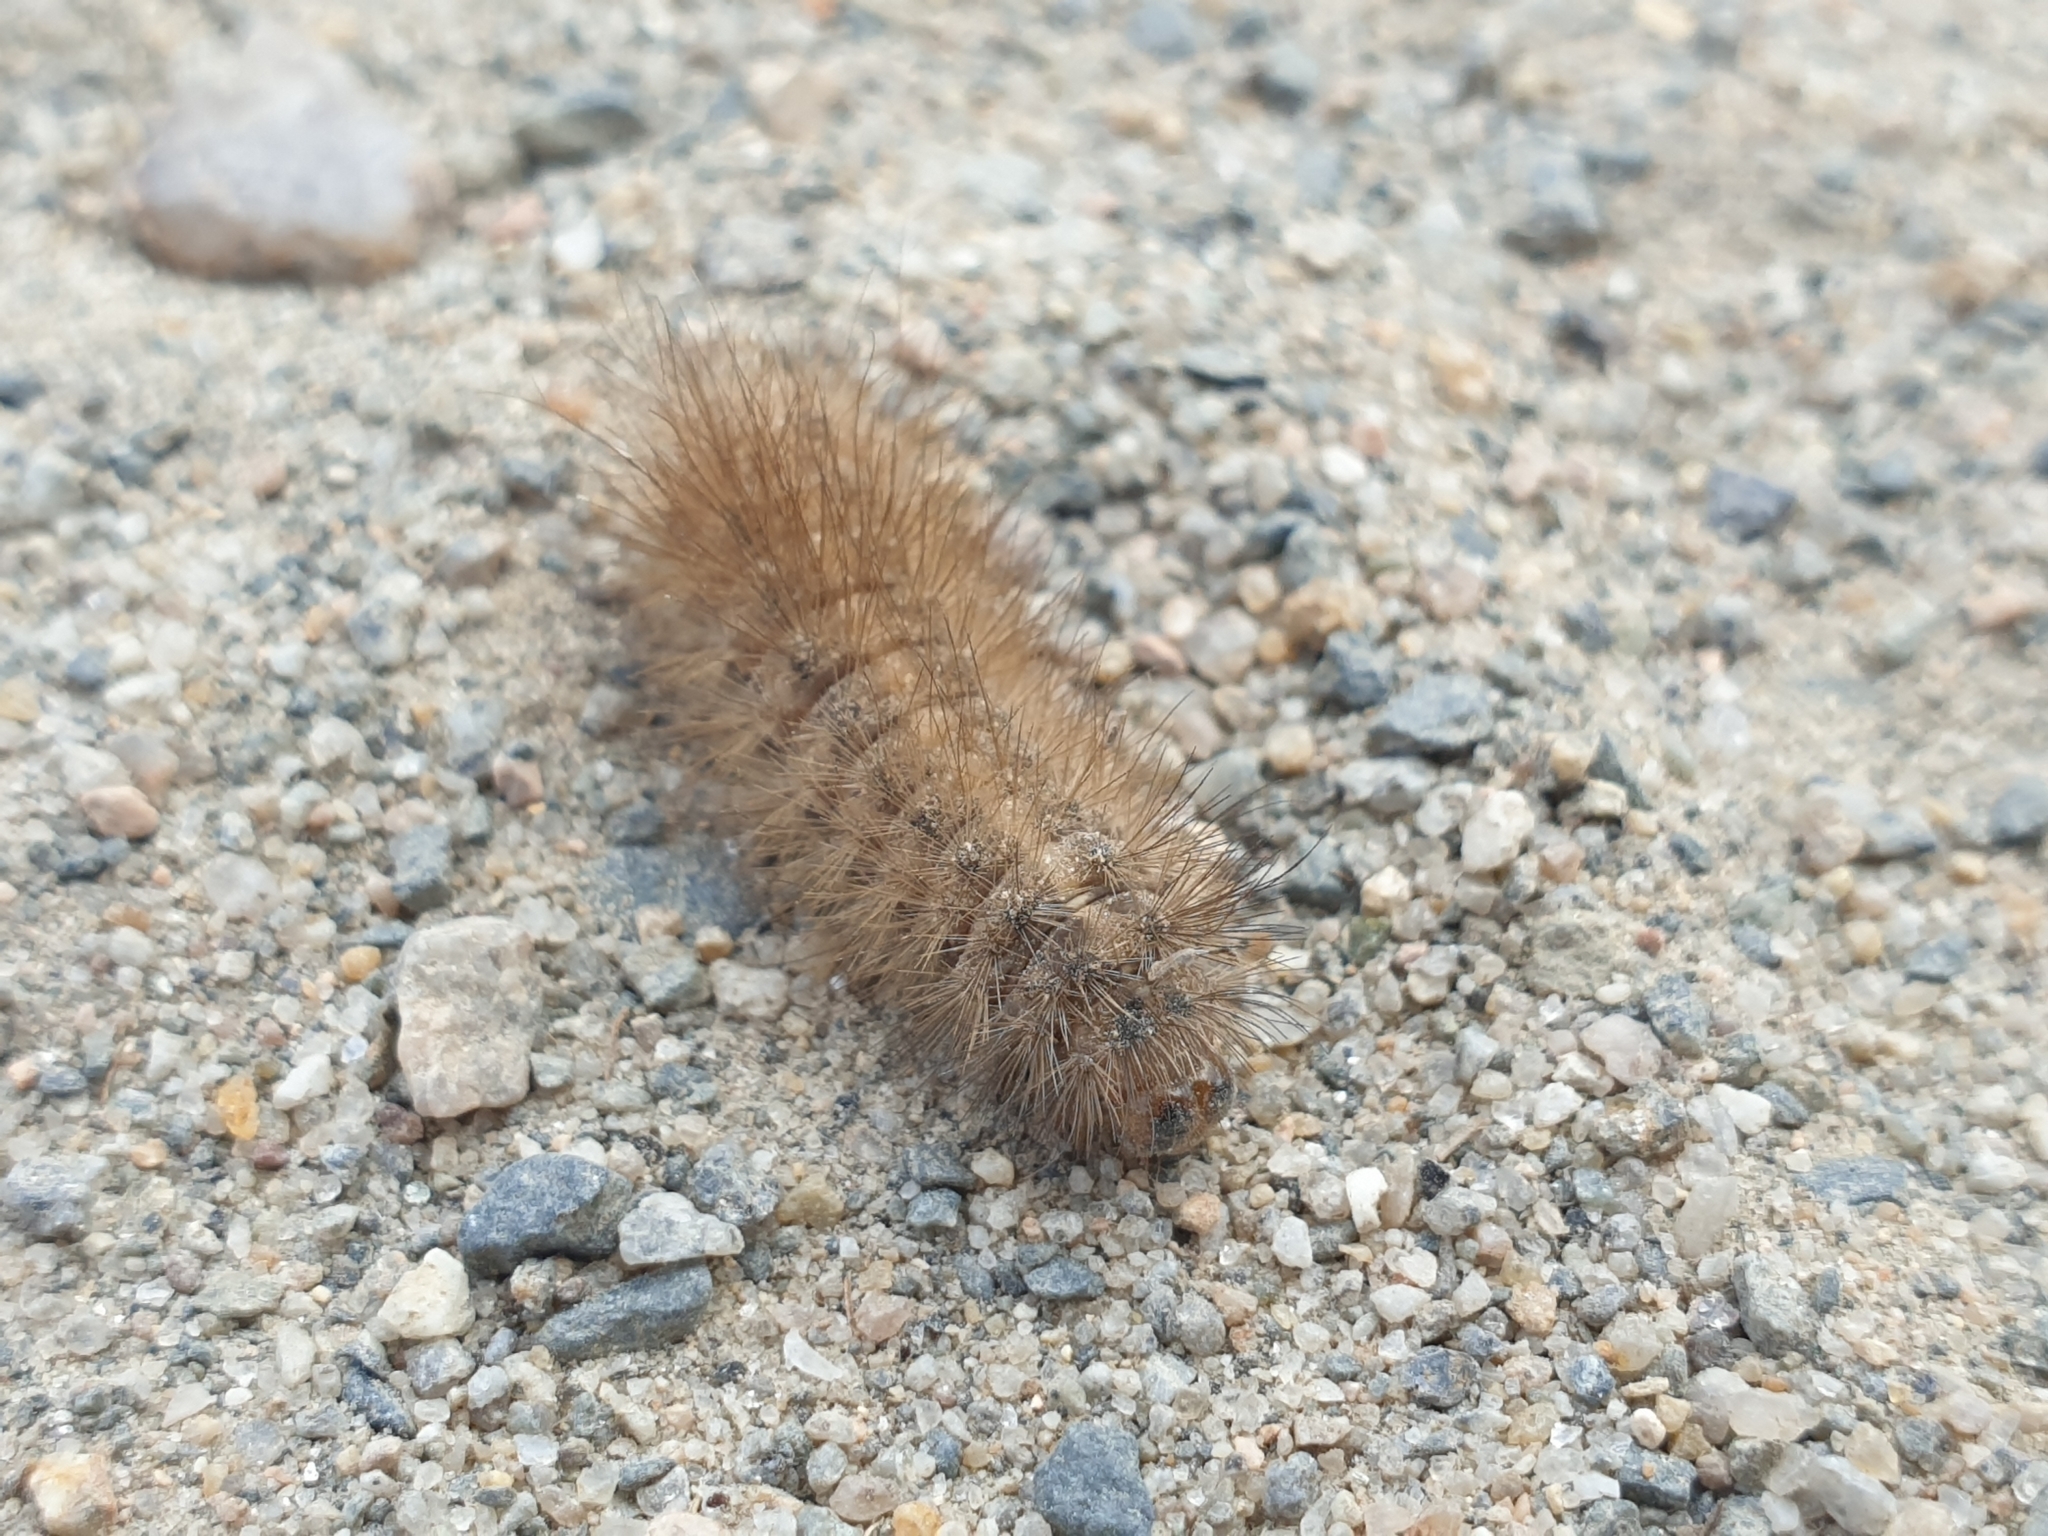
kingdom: Animalia
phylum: Arthropoda
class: Insecta
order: Lepidoptera
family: Erebidae
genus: Phragmatobia
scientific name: Phragmatobia fuliginosa
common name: Ruby tiger
